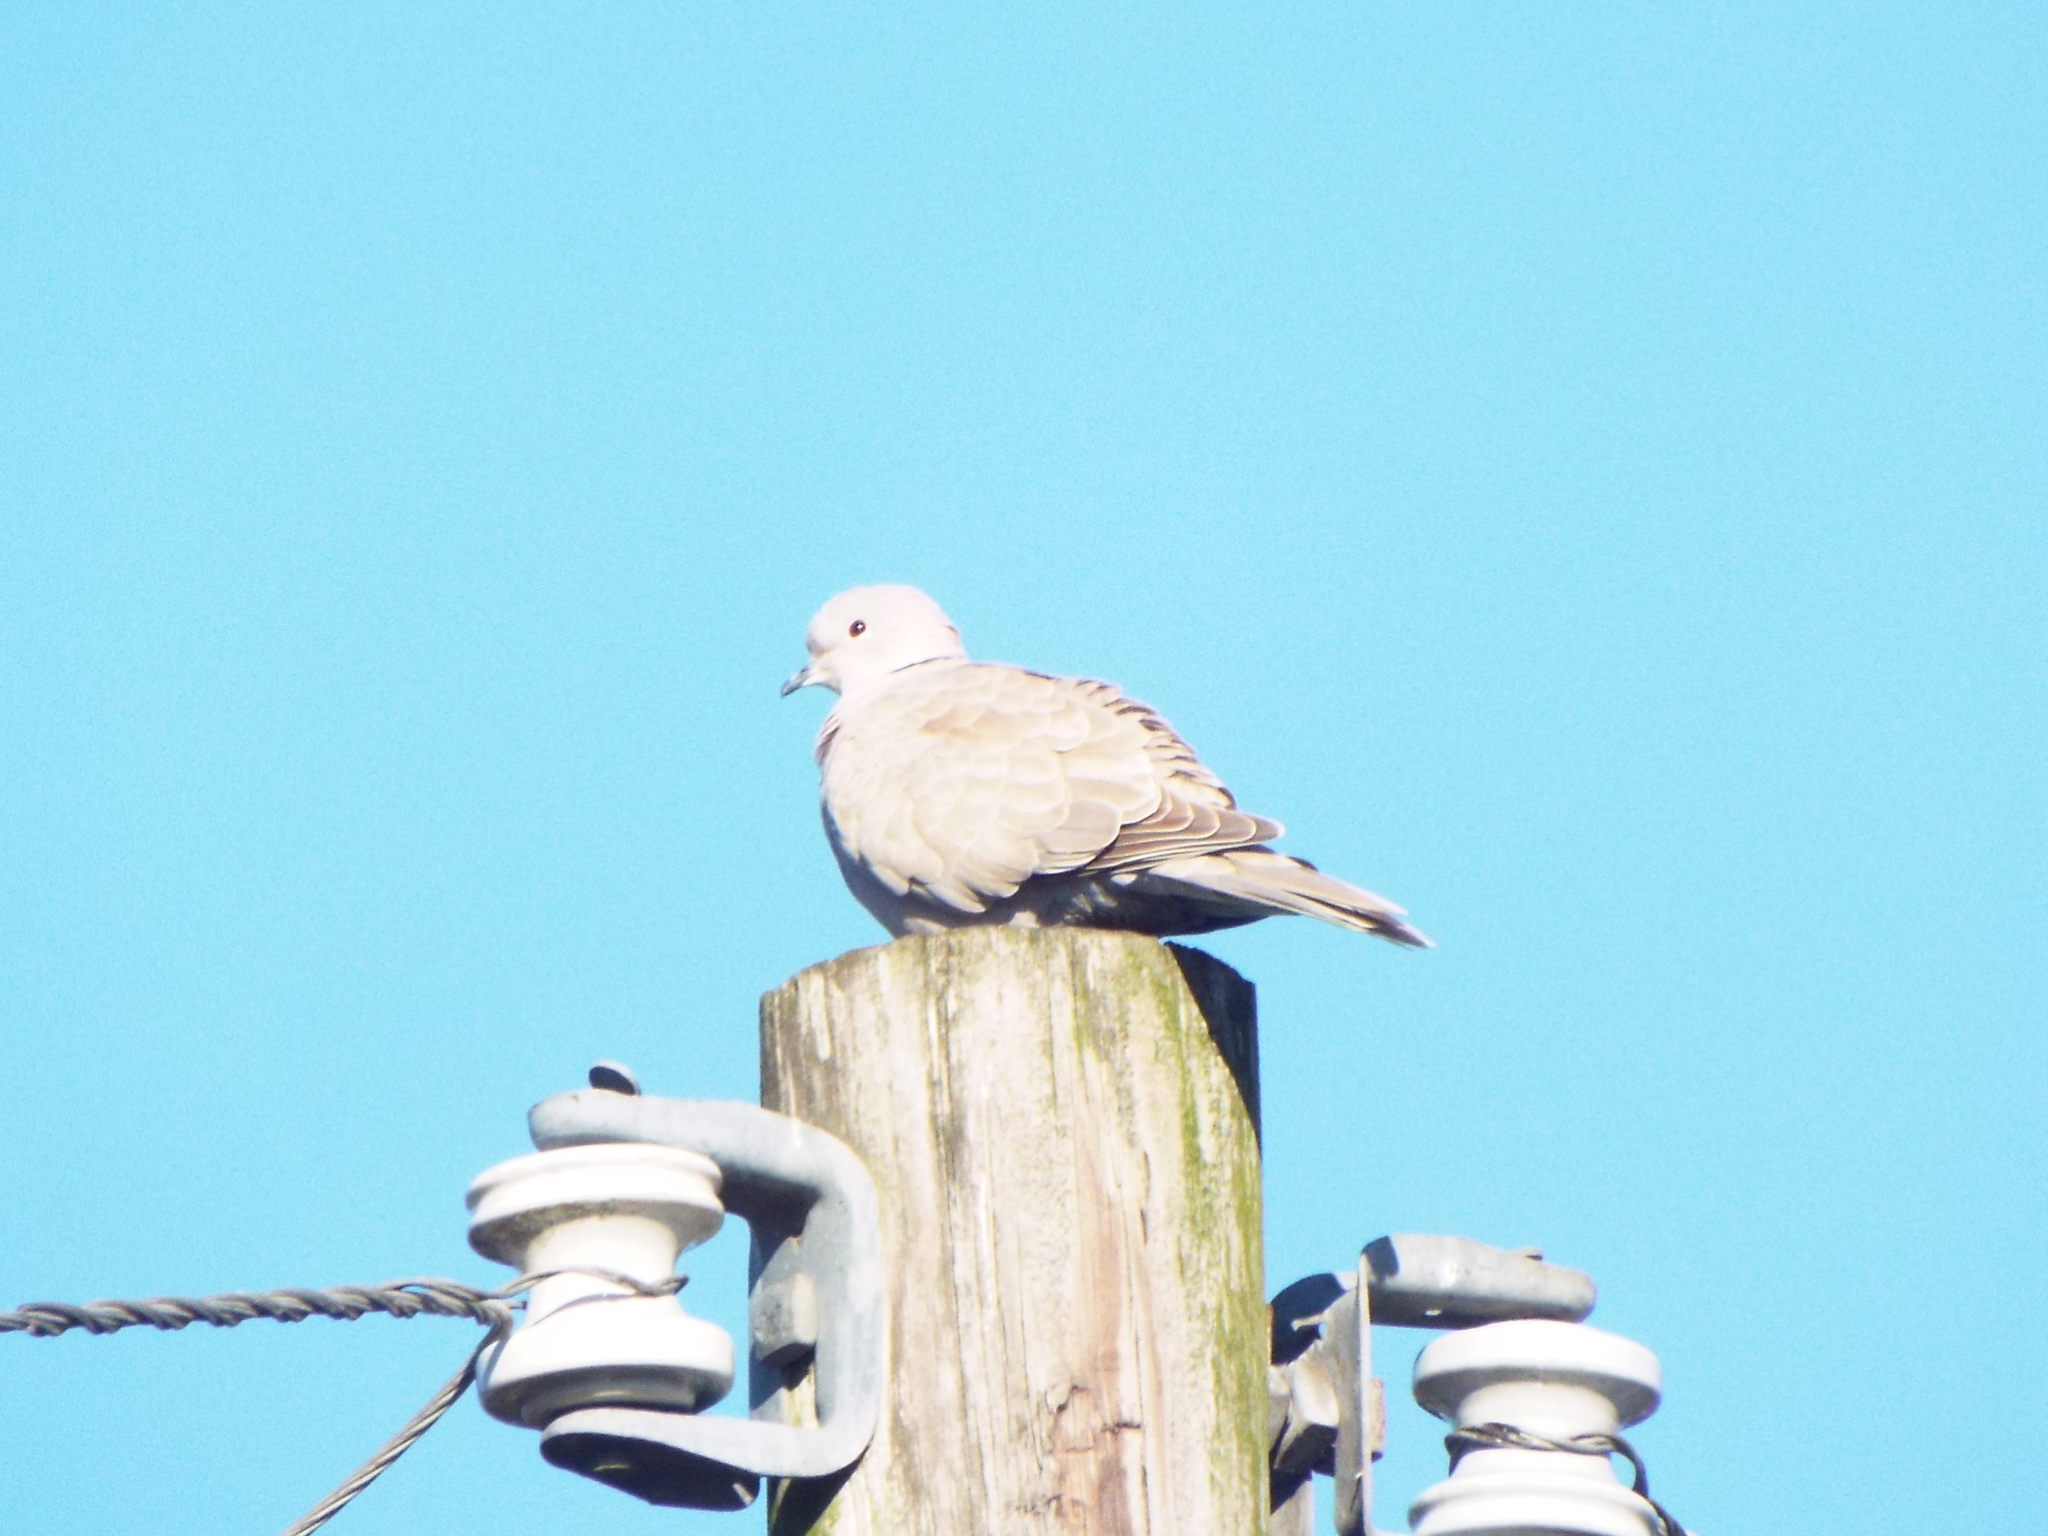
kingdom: Animalia
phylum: Chordata
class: Aves
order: Columbiformes
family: Columbidae
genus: Streptopelia
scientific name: Streptopelia decaocto
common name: Eurasian collared dove
